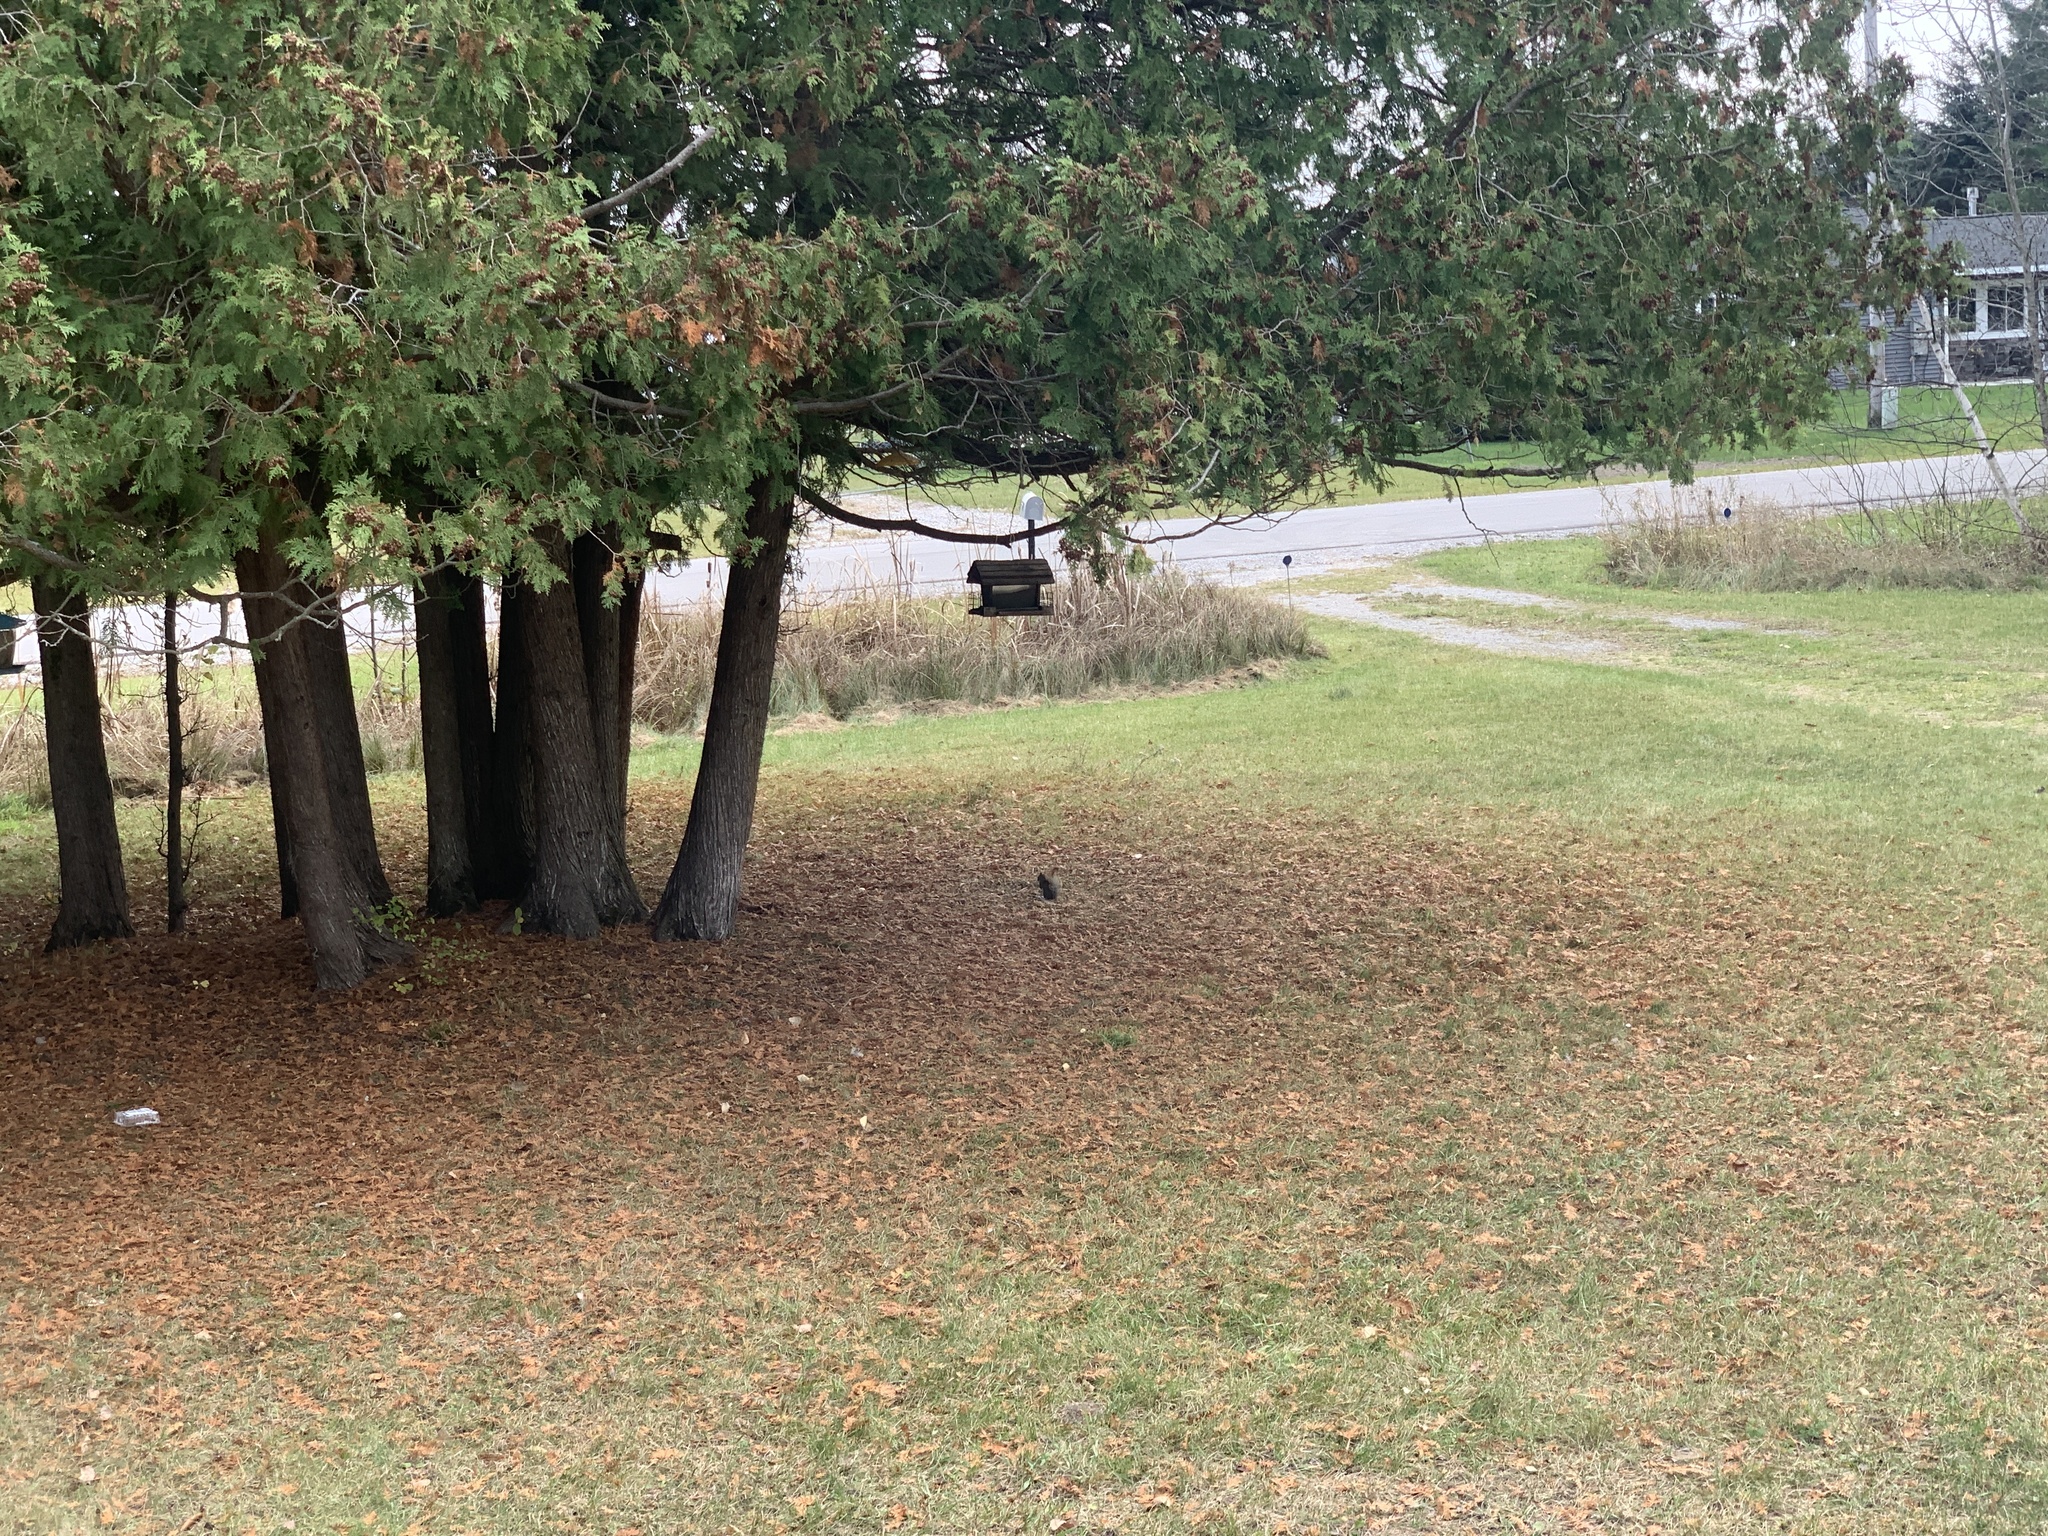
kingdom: Animalia
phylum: Chordata
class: Mammalia
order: Rodentia
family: Sciuridae
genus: Tamiasciurus
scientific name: Tamiasciurus hudsonicus
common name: Red squirrel
